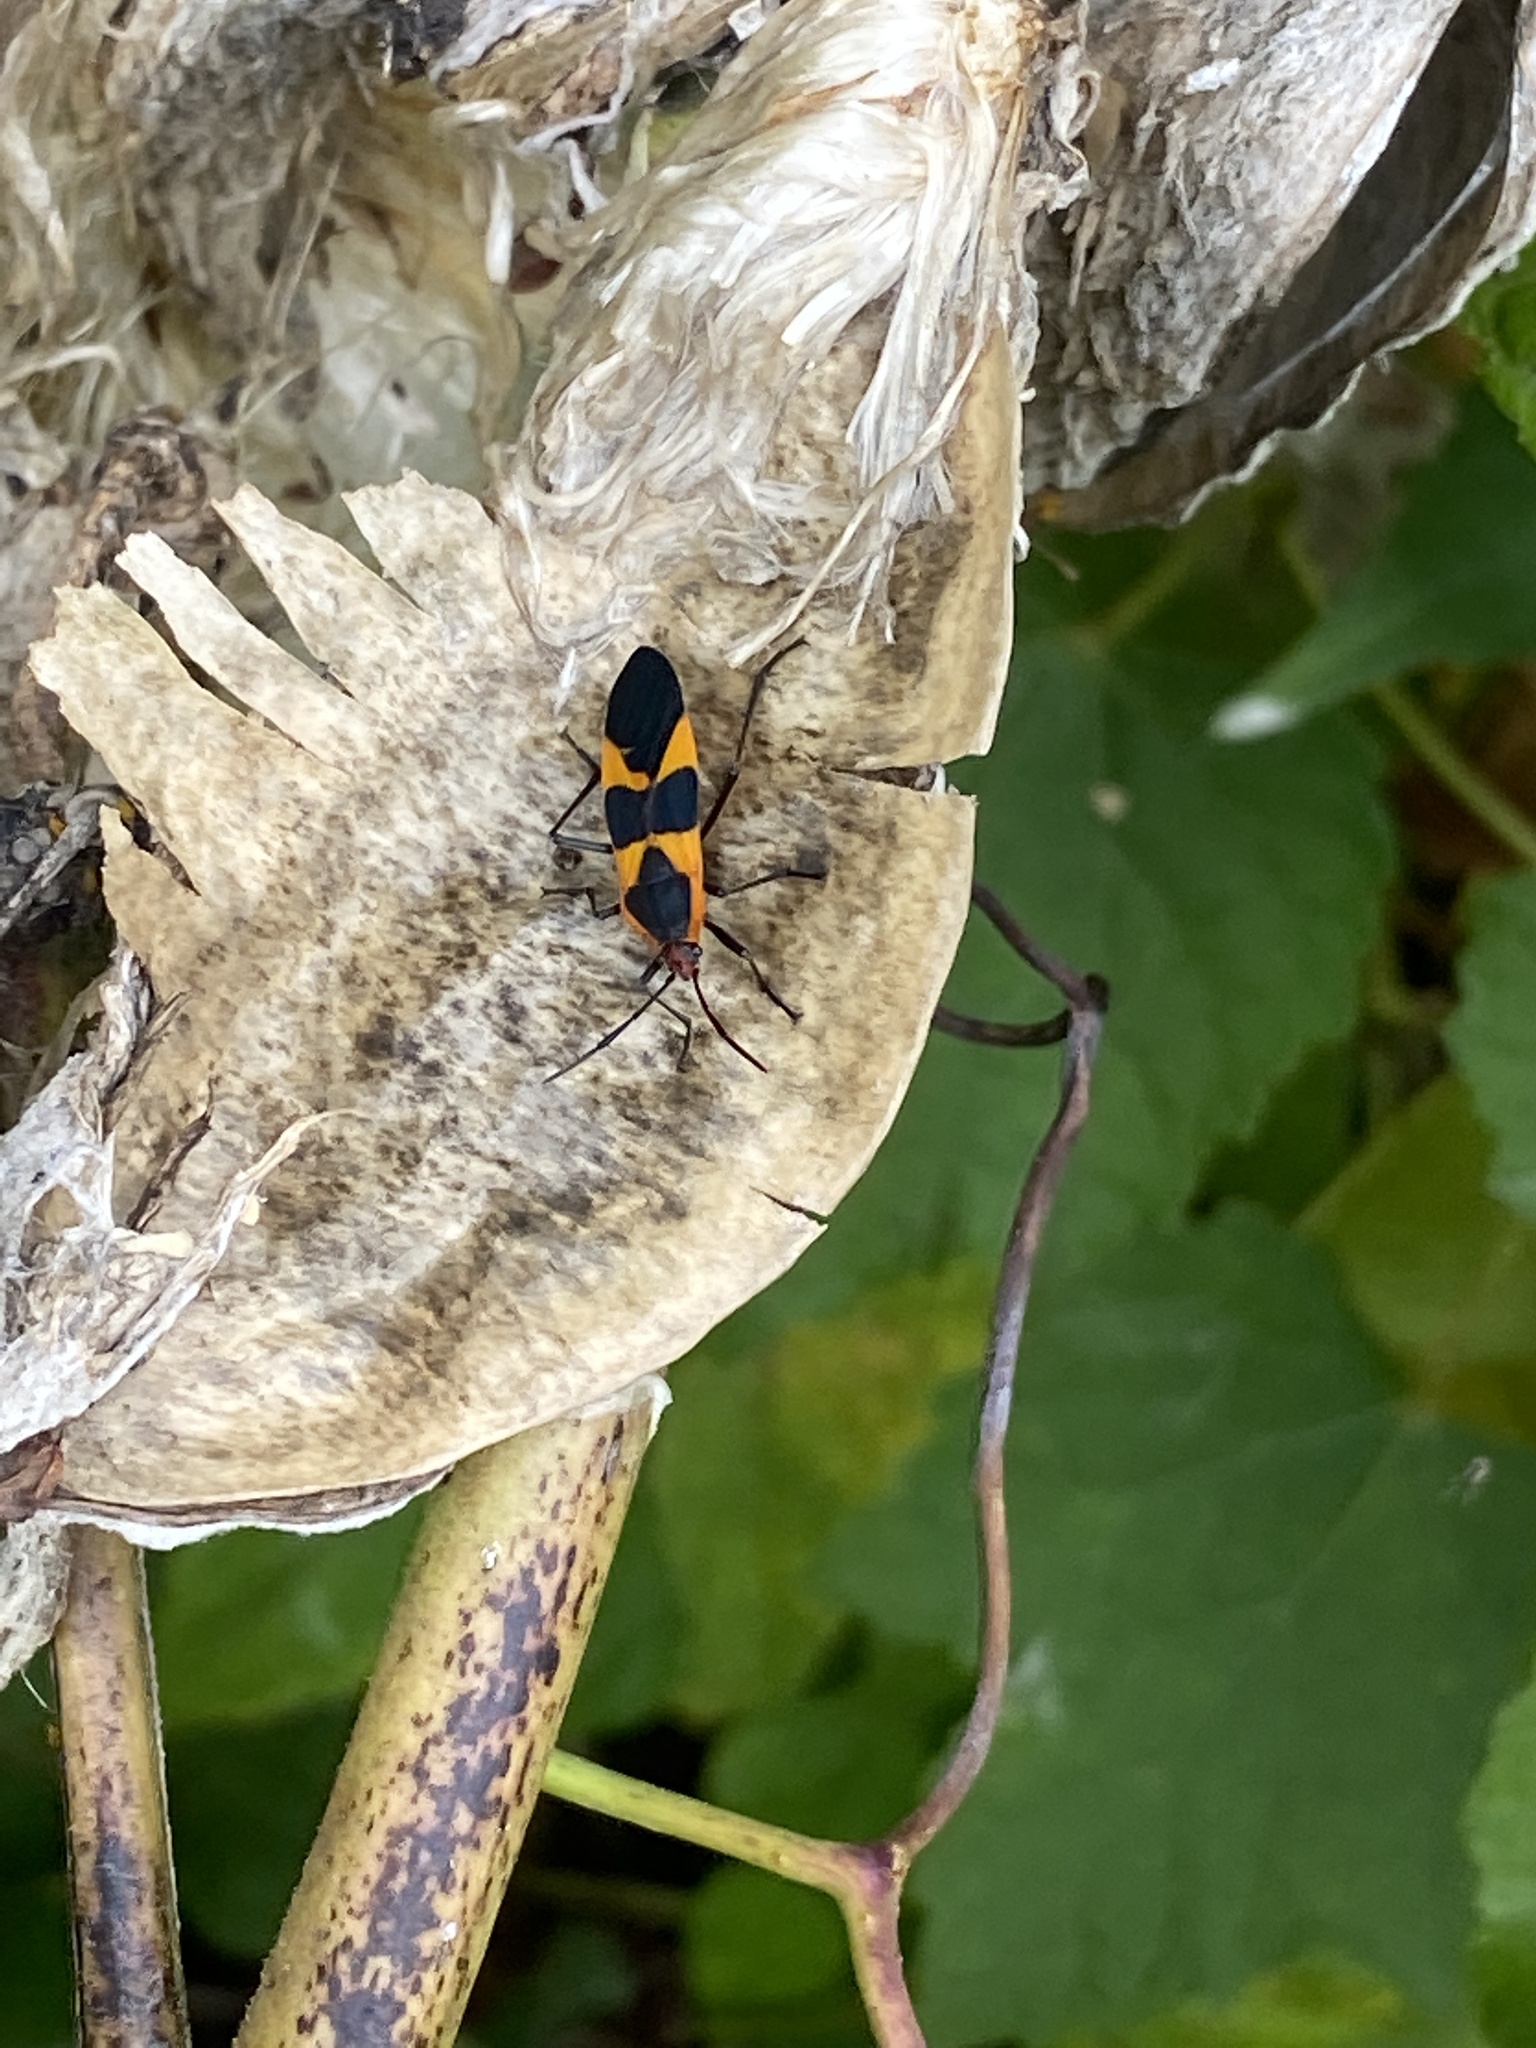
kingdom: Animalia
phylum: Arthropoda
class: Insecta
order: Hemiptera
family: Lygaeidae
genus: Oncopeltus
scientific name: Oncopeltus fasciatus
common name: Large milkweed bug
